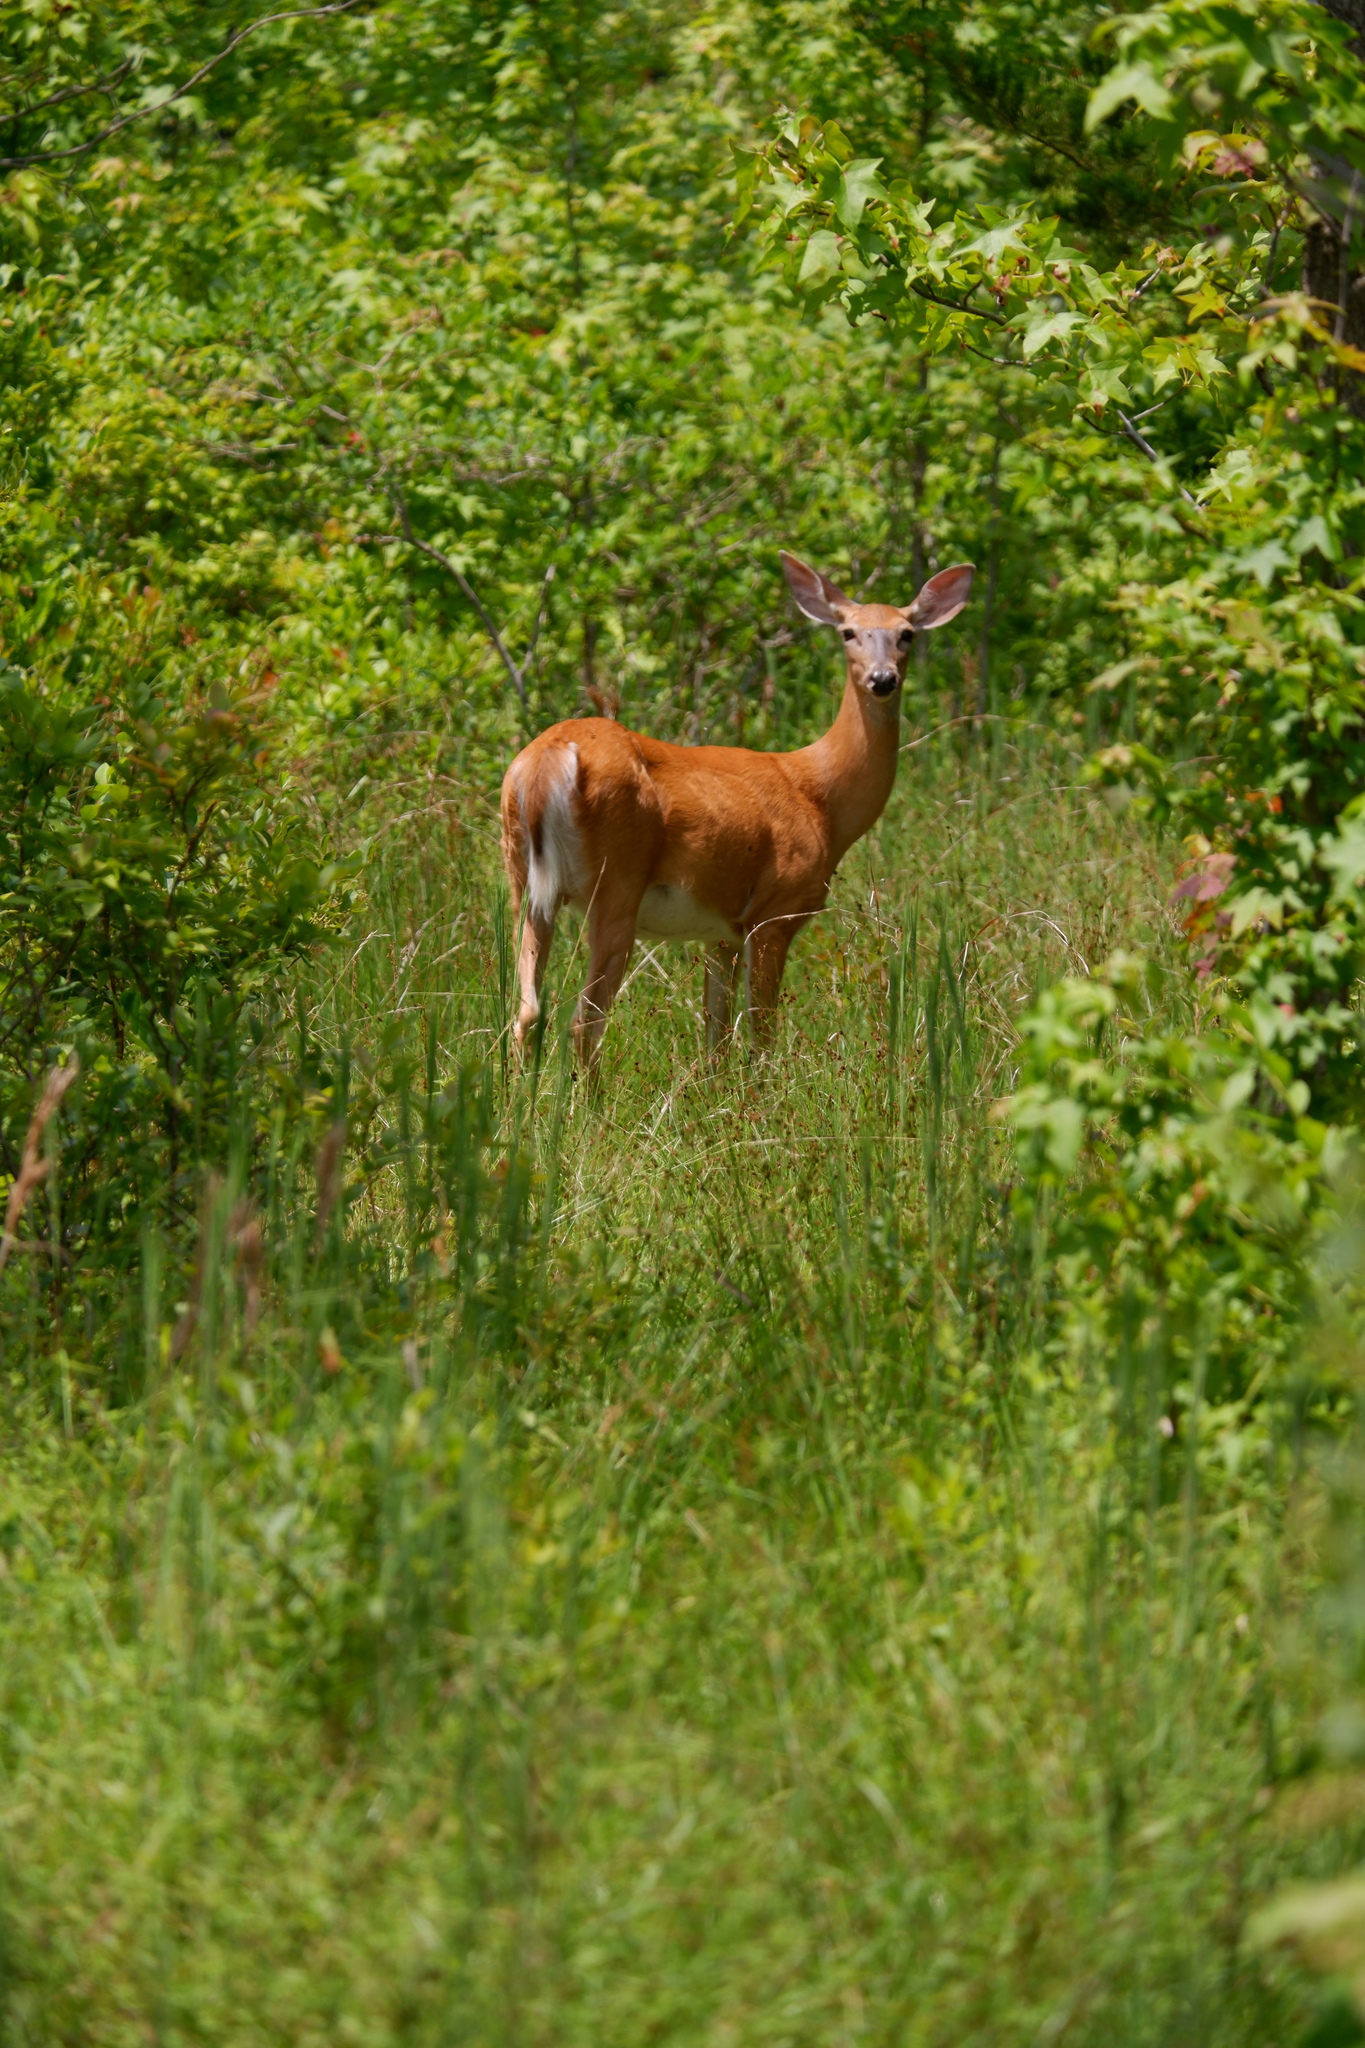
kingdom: Animalia
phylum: Chordata
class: Mammalia
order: Artiodactyla
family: Cervidae
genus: Odocoileus
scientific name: Odocoileus virginianus
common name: White-tailed deer
